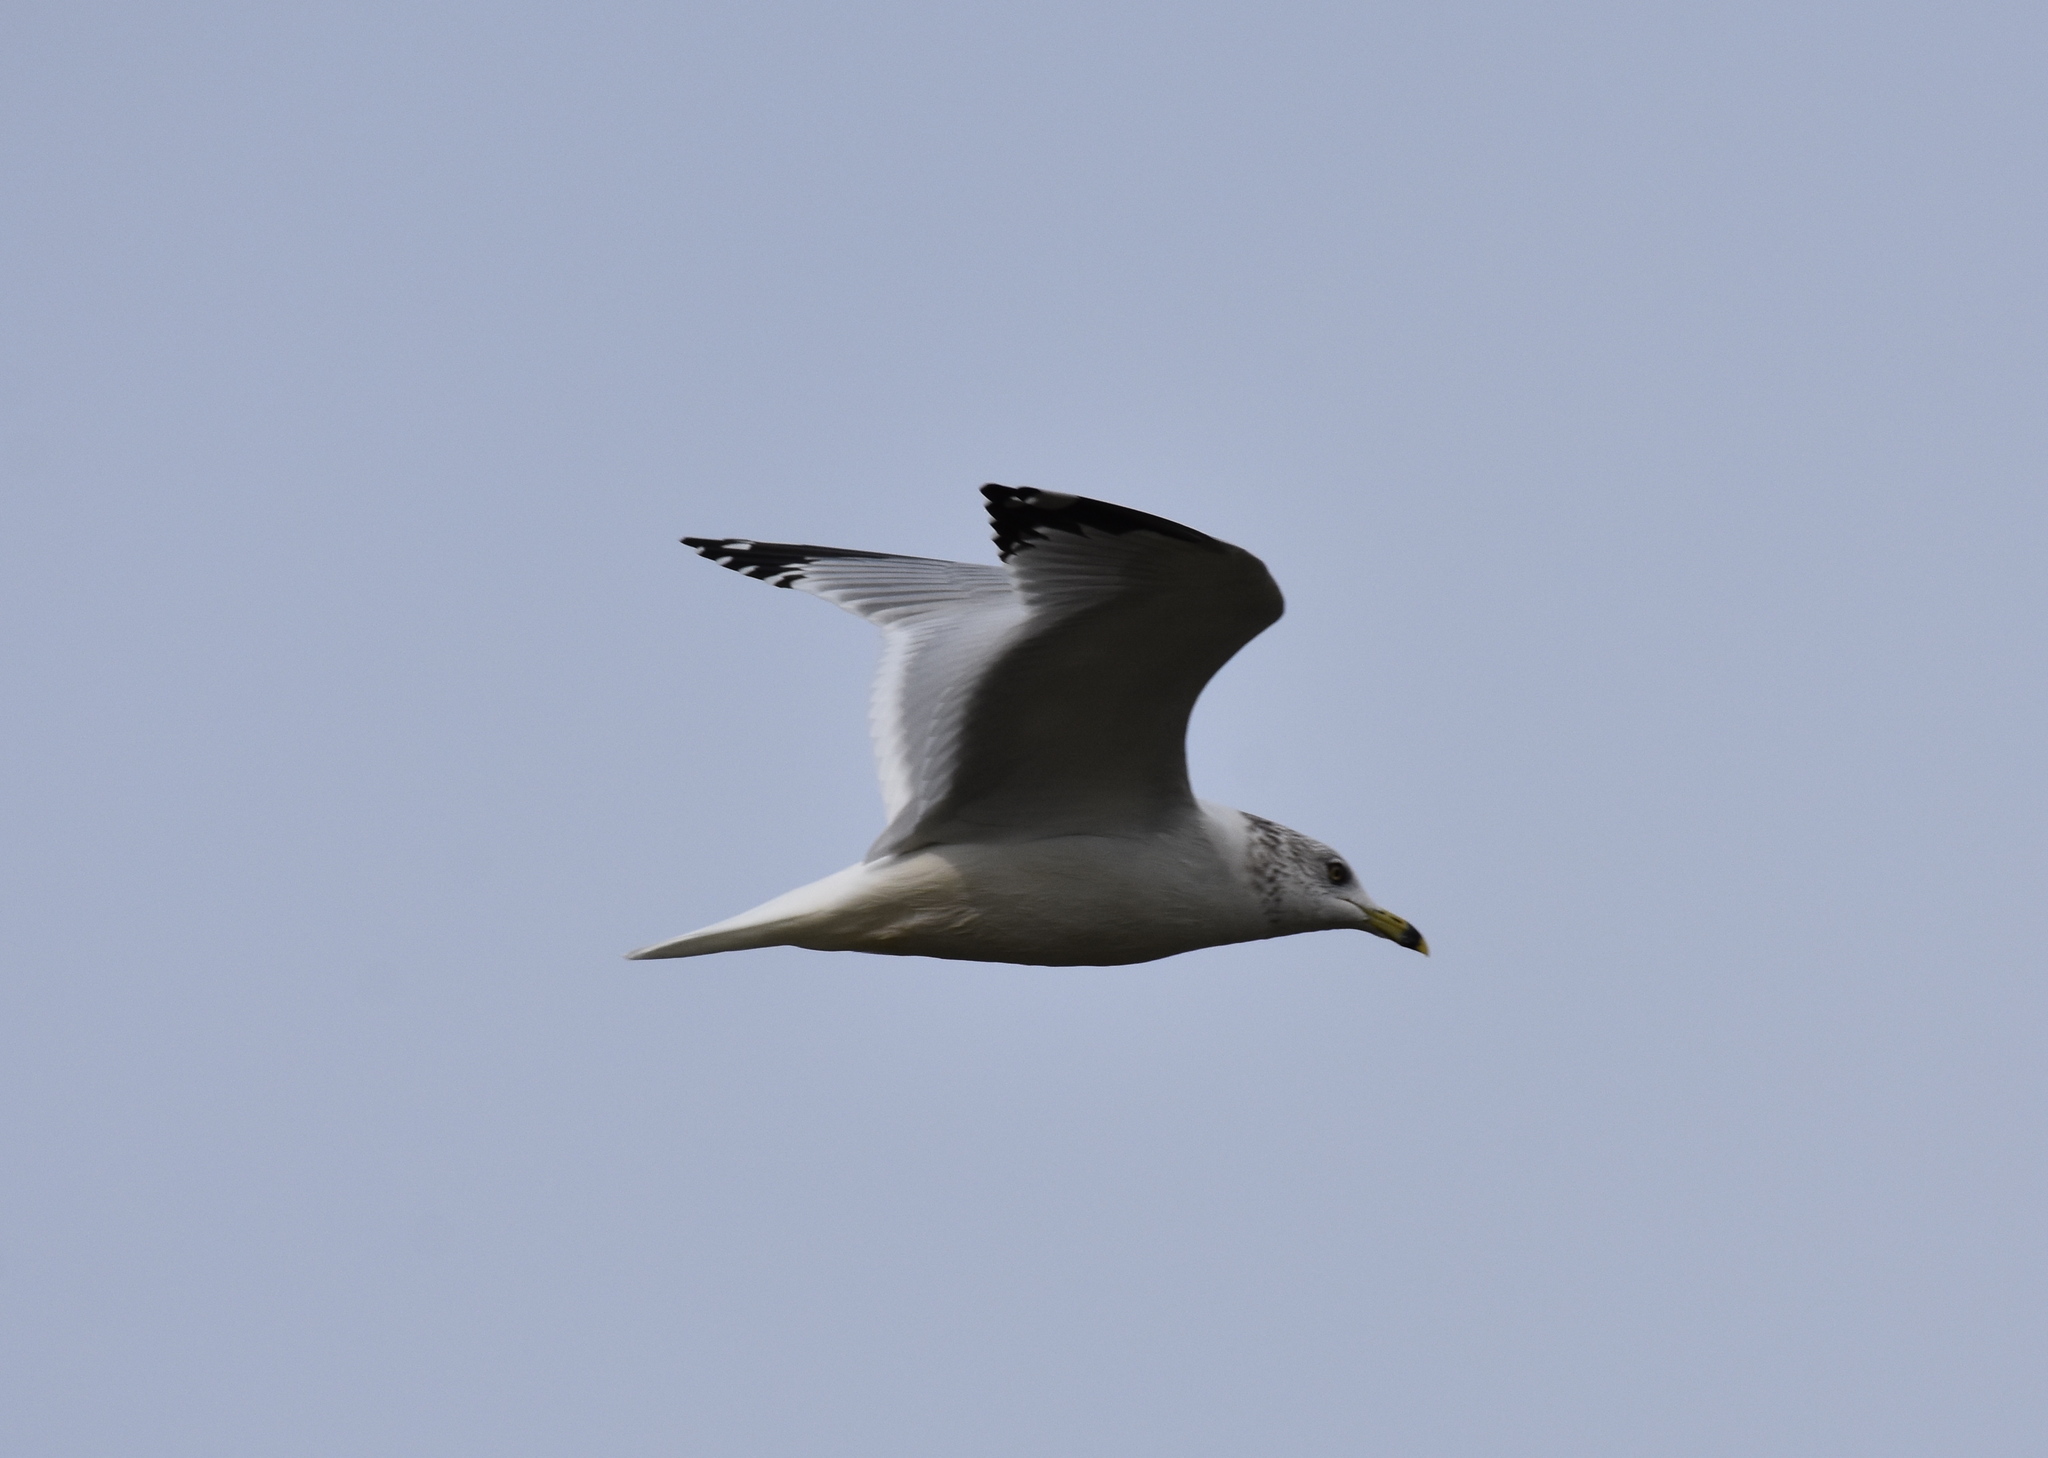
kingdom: Animalia
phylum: Chordata
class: Aves
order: Charadriiformes
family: Laridae
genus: Larus
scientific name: Larus delawarensis
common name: Ring-billed gull
